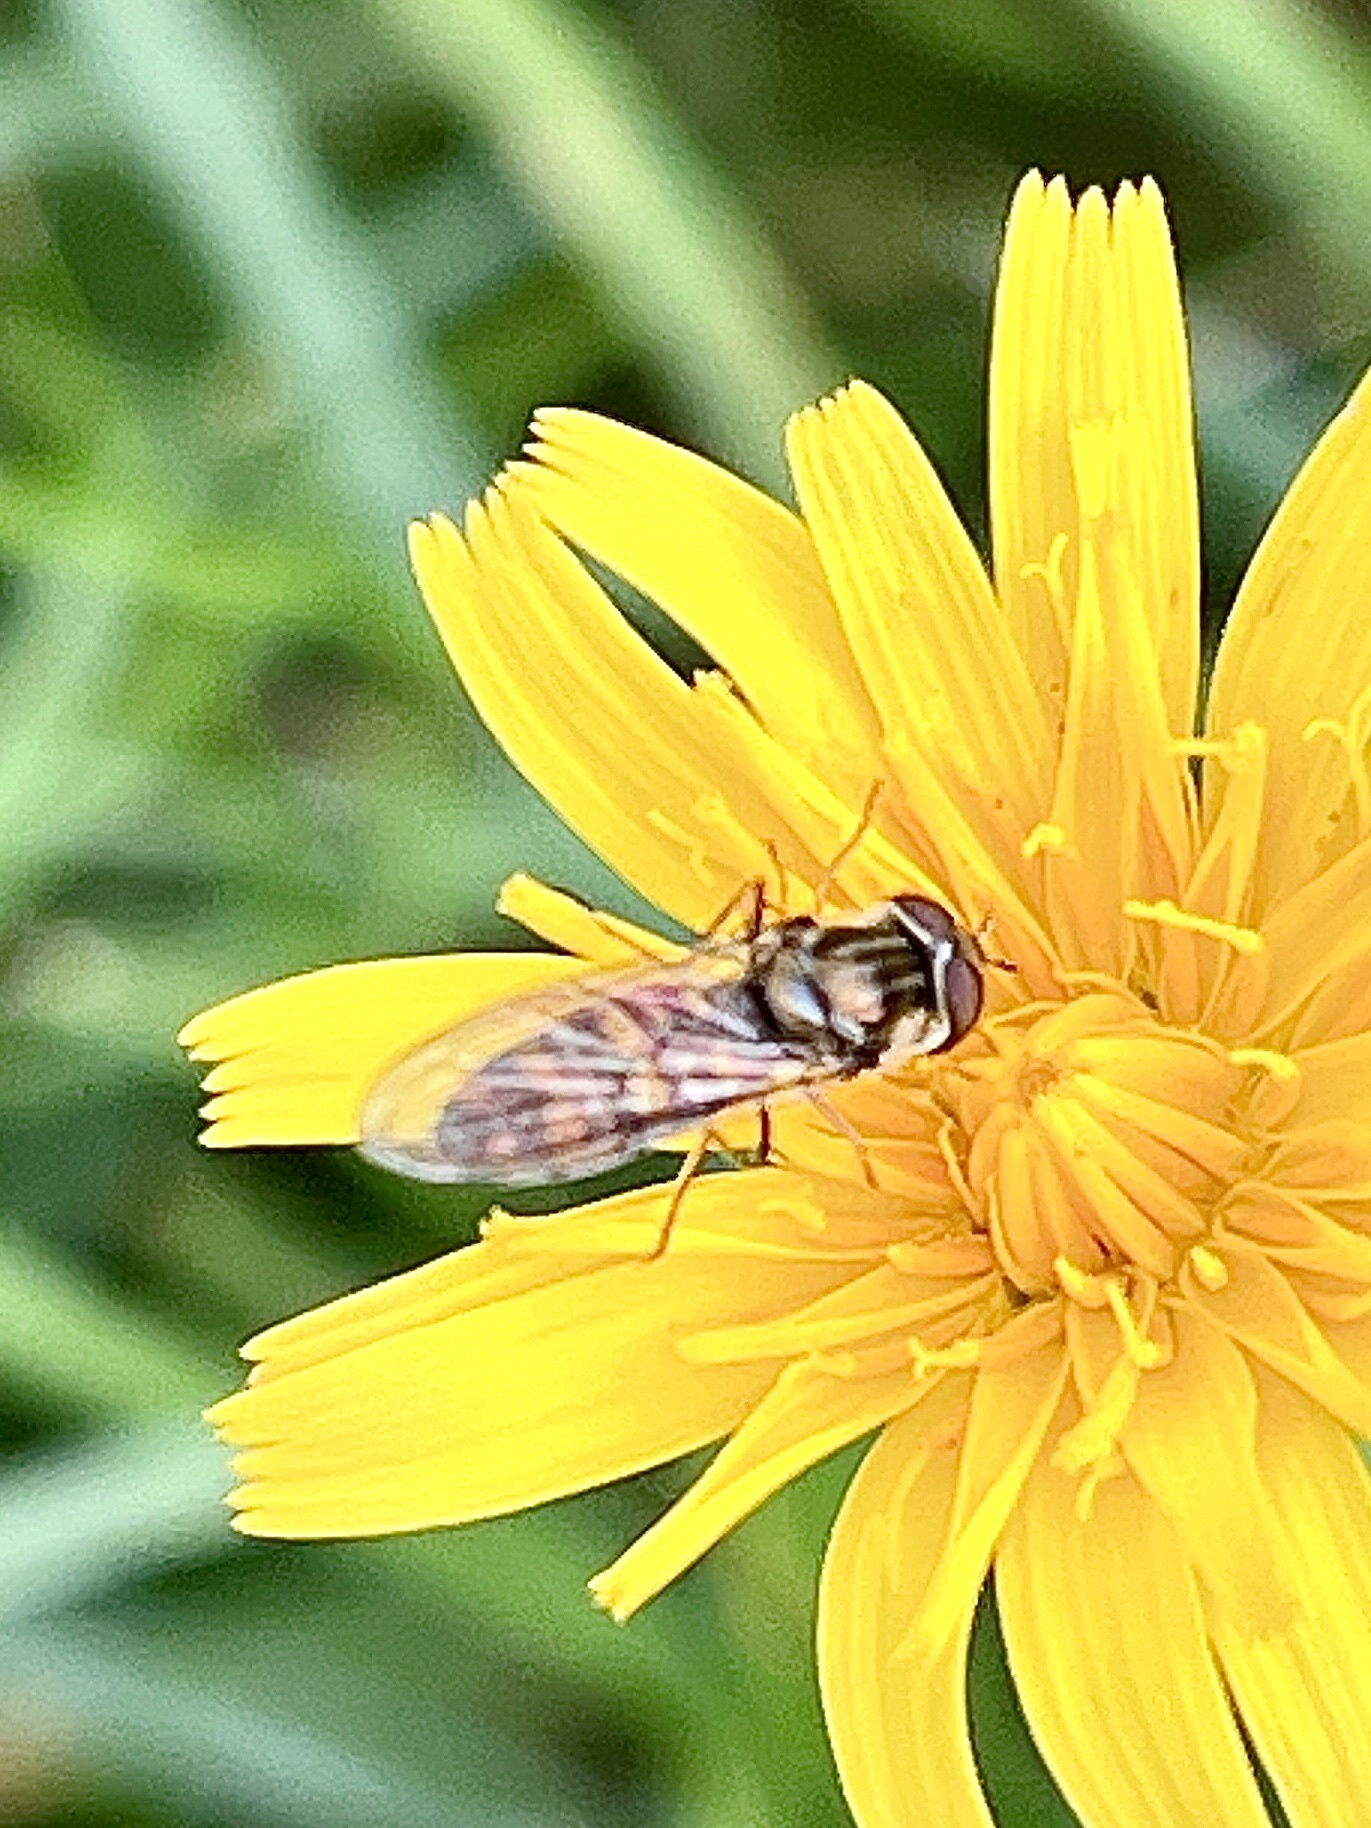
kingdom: Animalia
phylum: Arthropoda
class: Insecta
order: Diptera
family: Syrphidae
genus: Episyrphus
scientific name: Episyrphus balteatus
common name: Marmalade hoverfly
